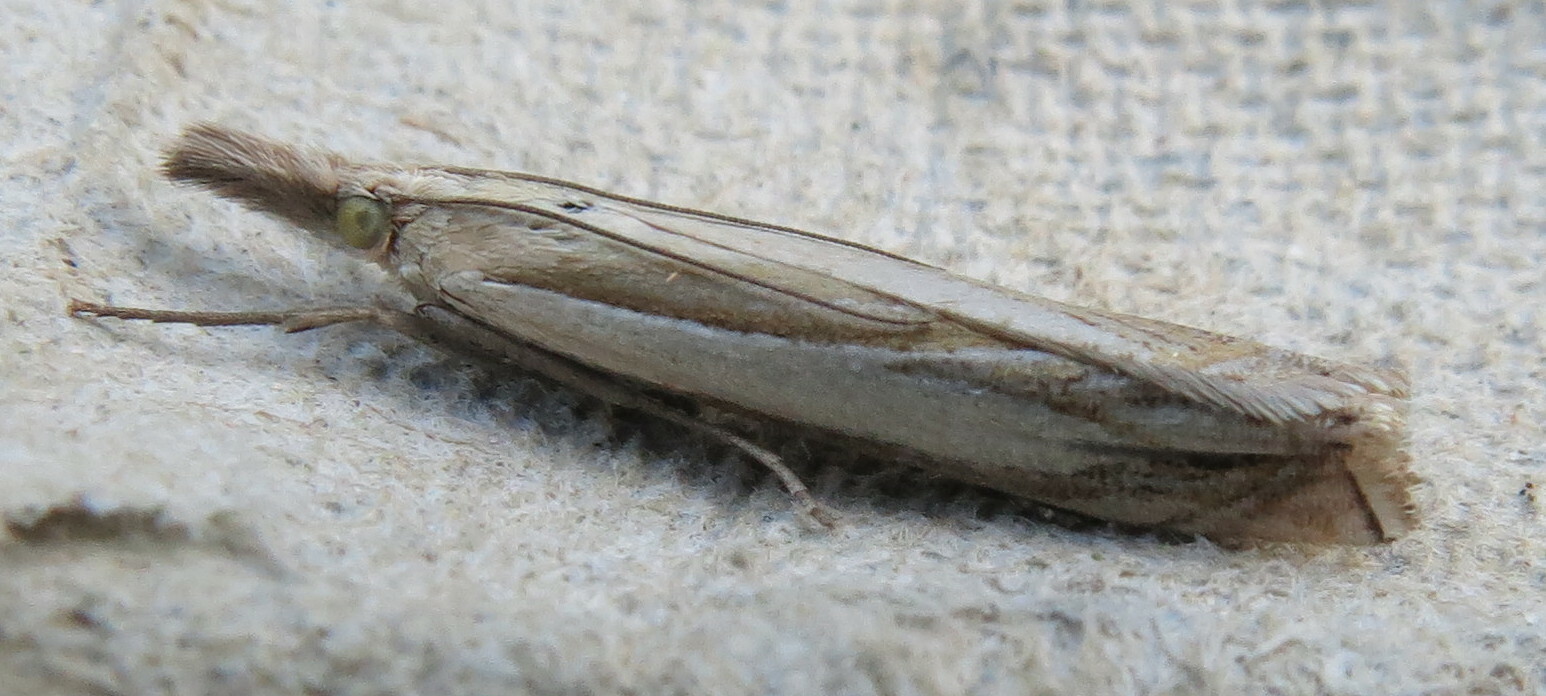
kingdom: Animalia
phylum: Arthropoda
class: Insecta
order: Lepidoptera
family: Crambidae
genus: Crambus
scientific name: Crambus pascuella
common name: Inlaid grass-veneer
